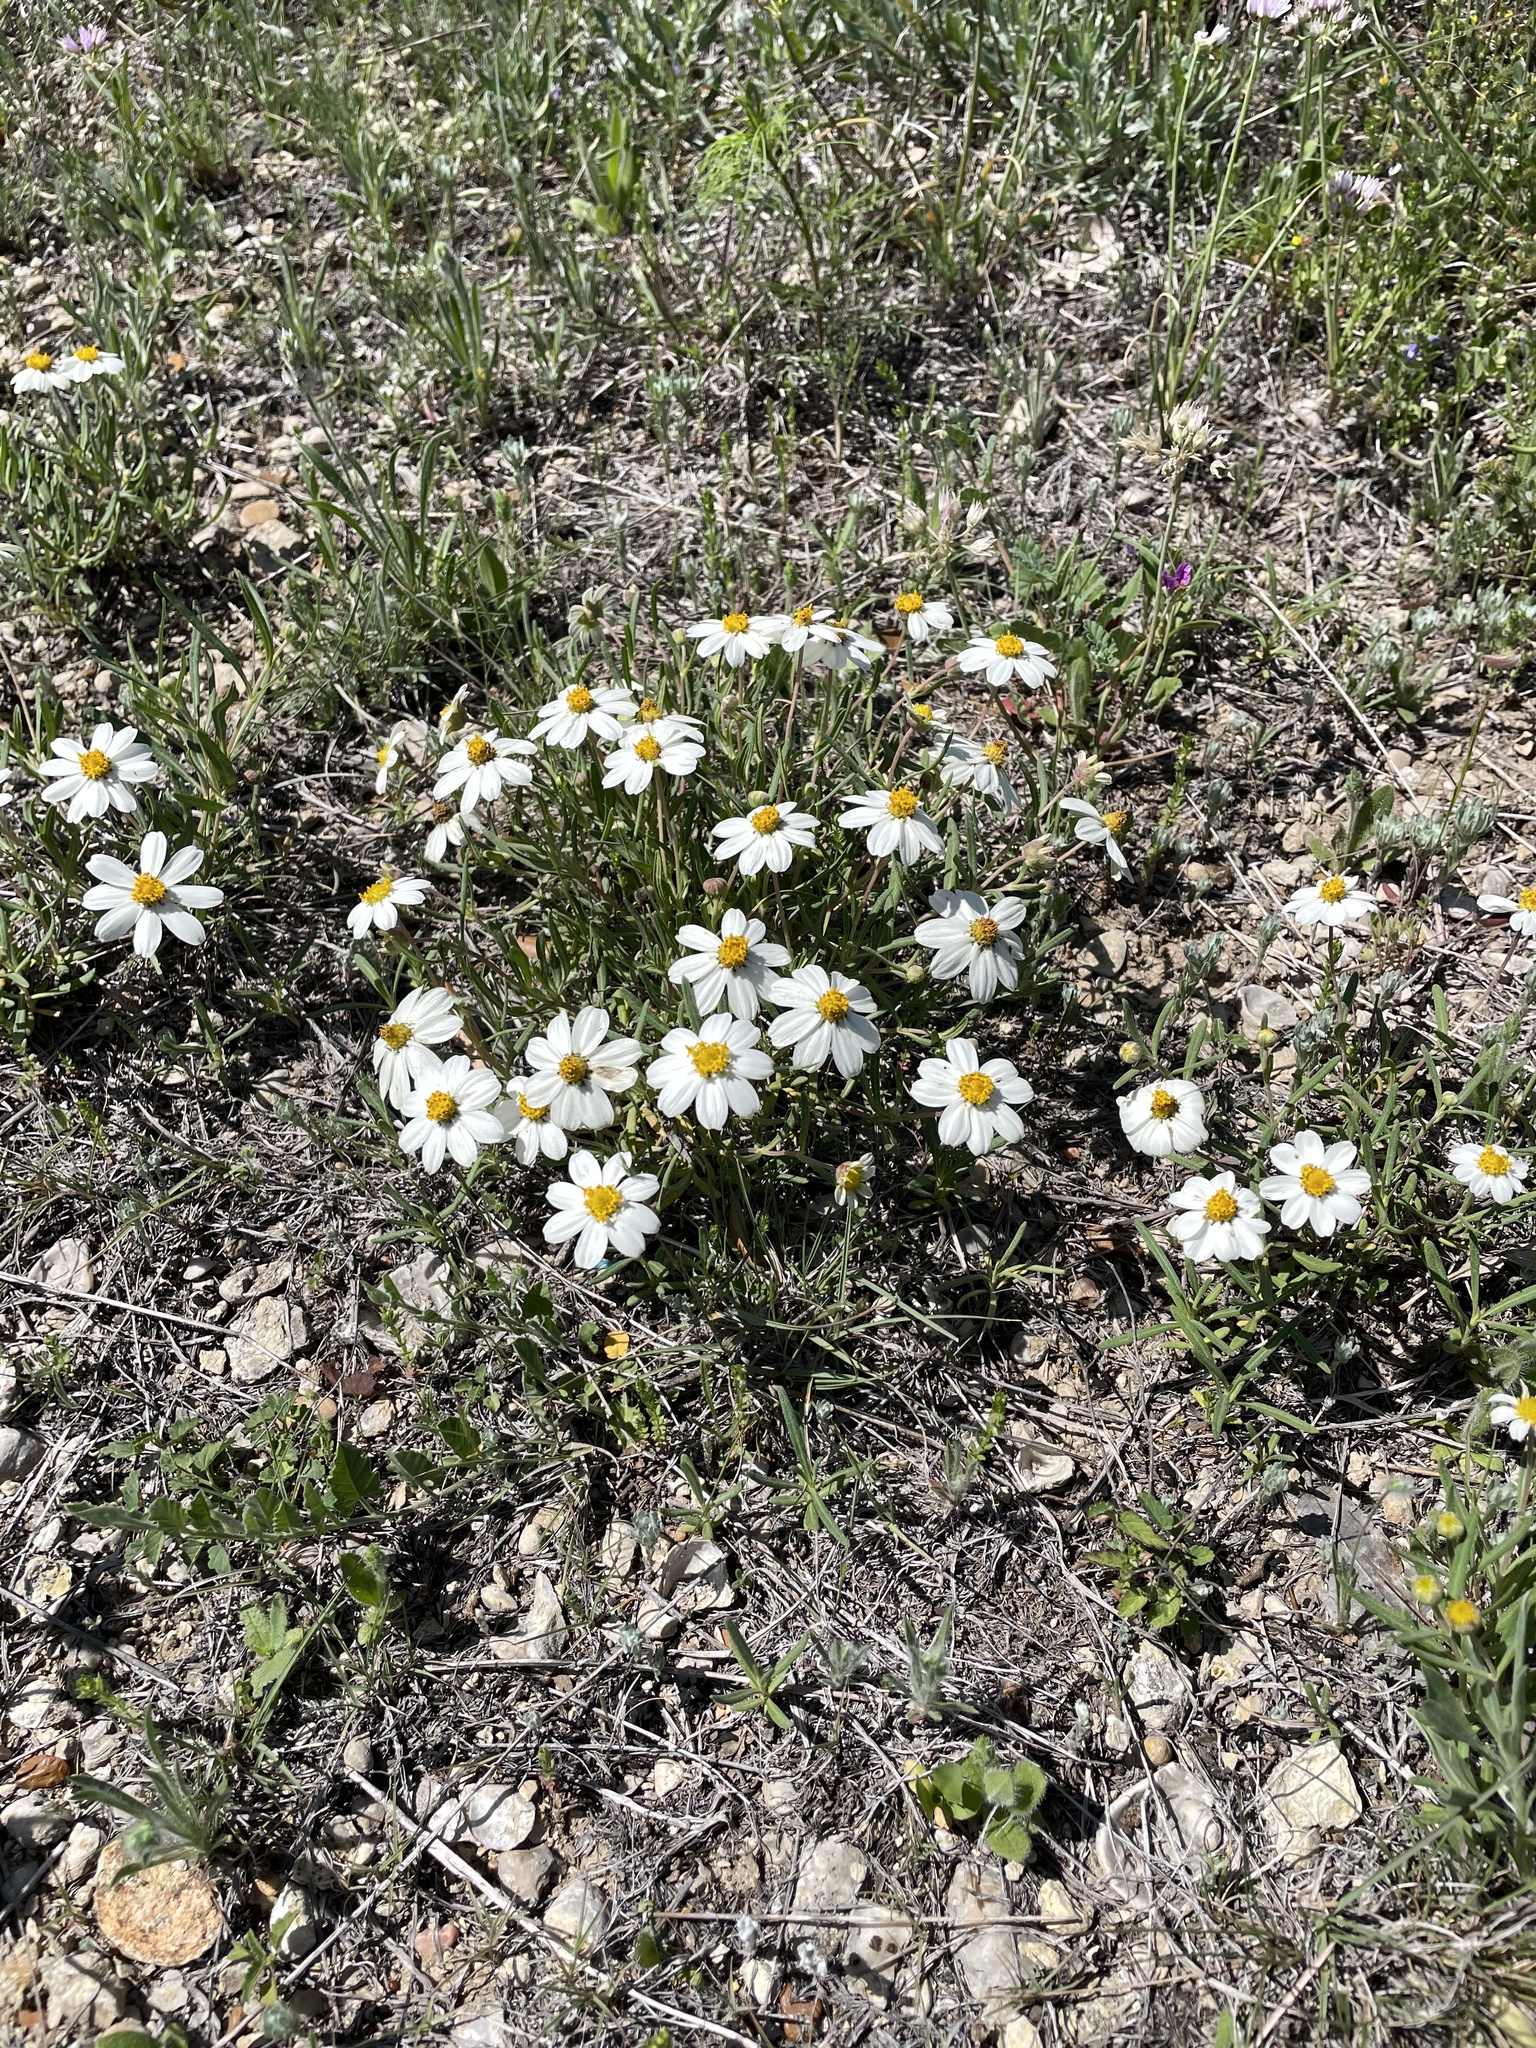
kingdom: Plantae
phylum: Tracheophyta
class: Magnoliopsida
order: Asterales
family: Asteraceae
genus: Melampodium
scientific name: Melampodium leucanthum
